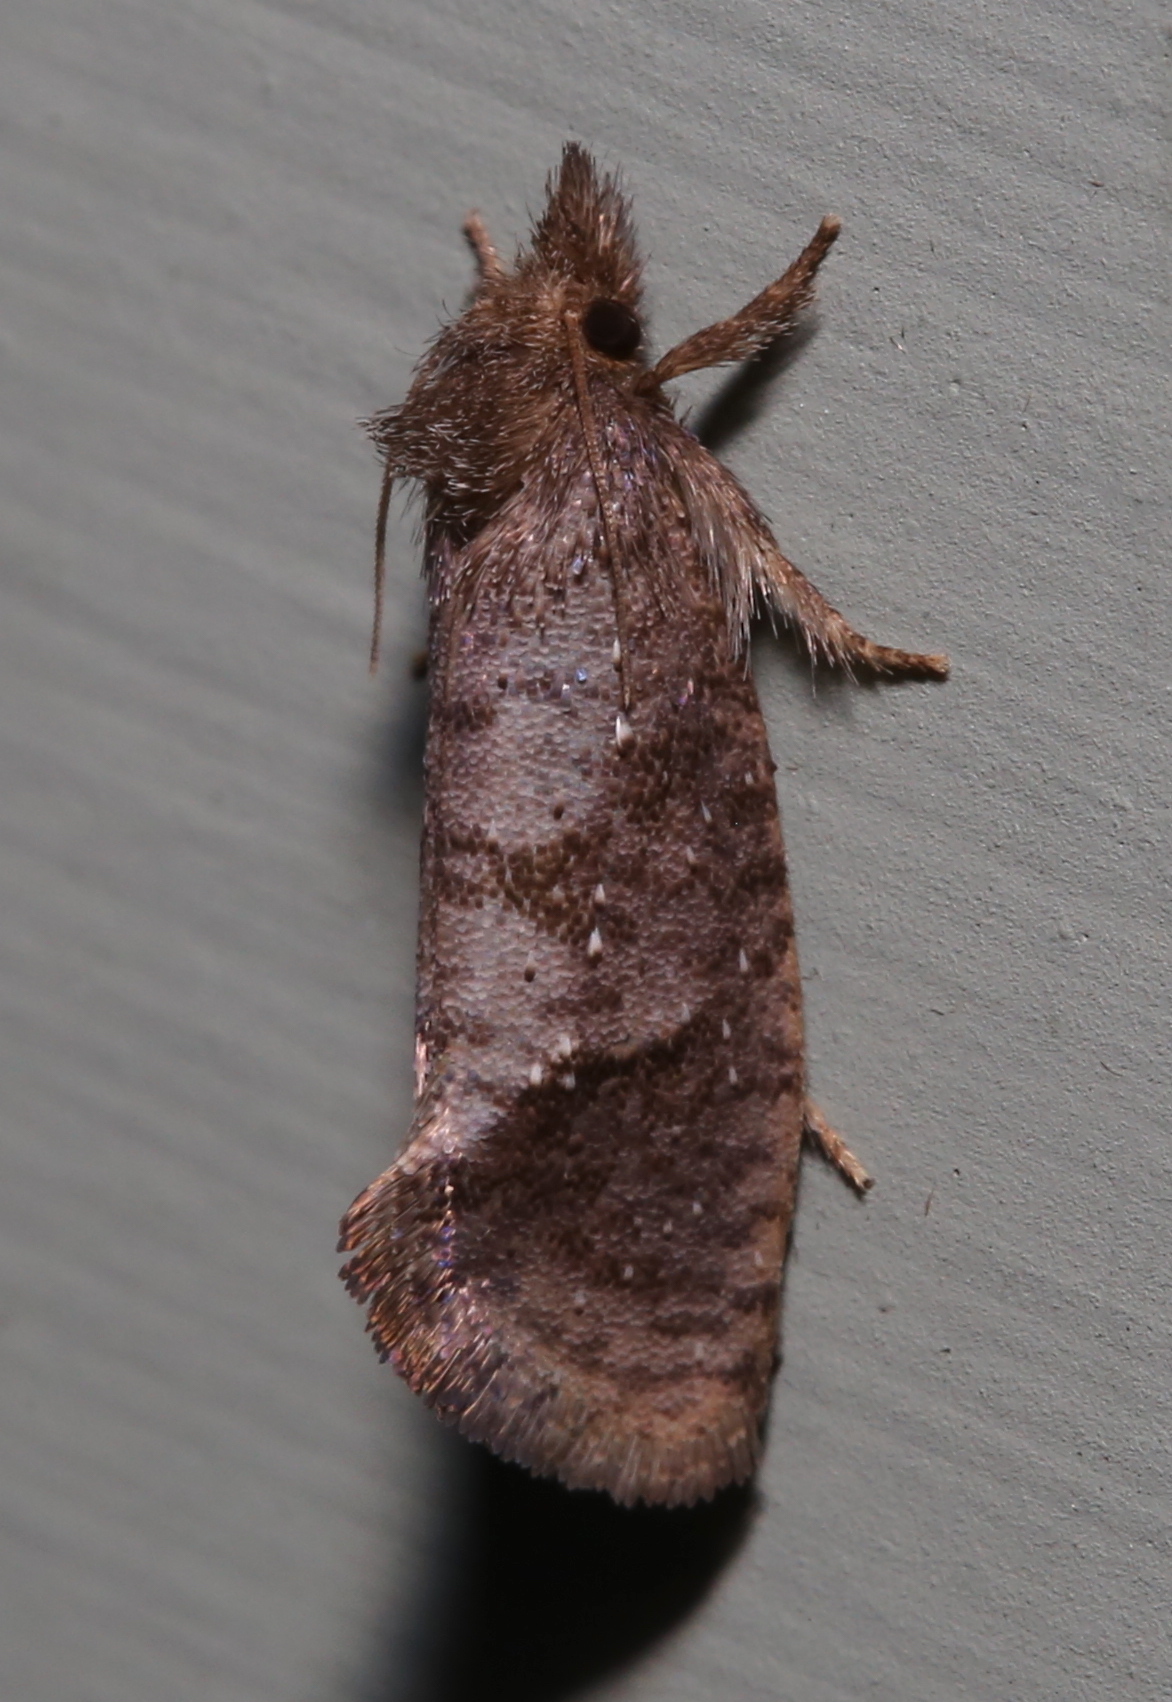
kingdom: Animalia
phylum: Arthropoda
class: Insecta
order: Lepidoptera
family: Tineidae
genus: Acrolophus
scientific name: Acrolophus texanella
